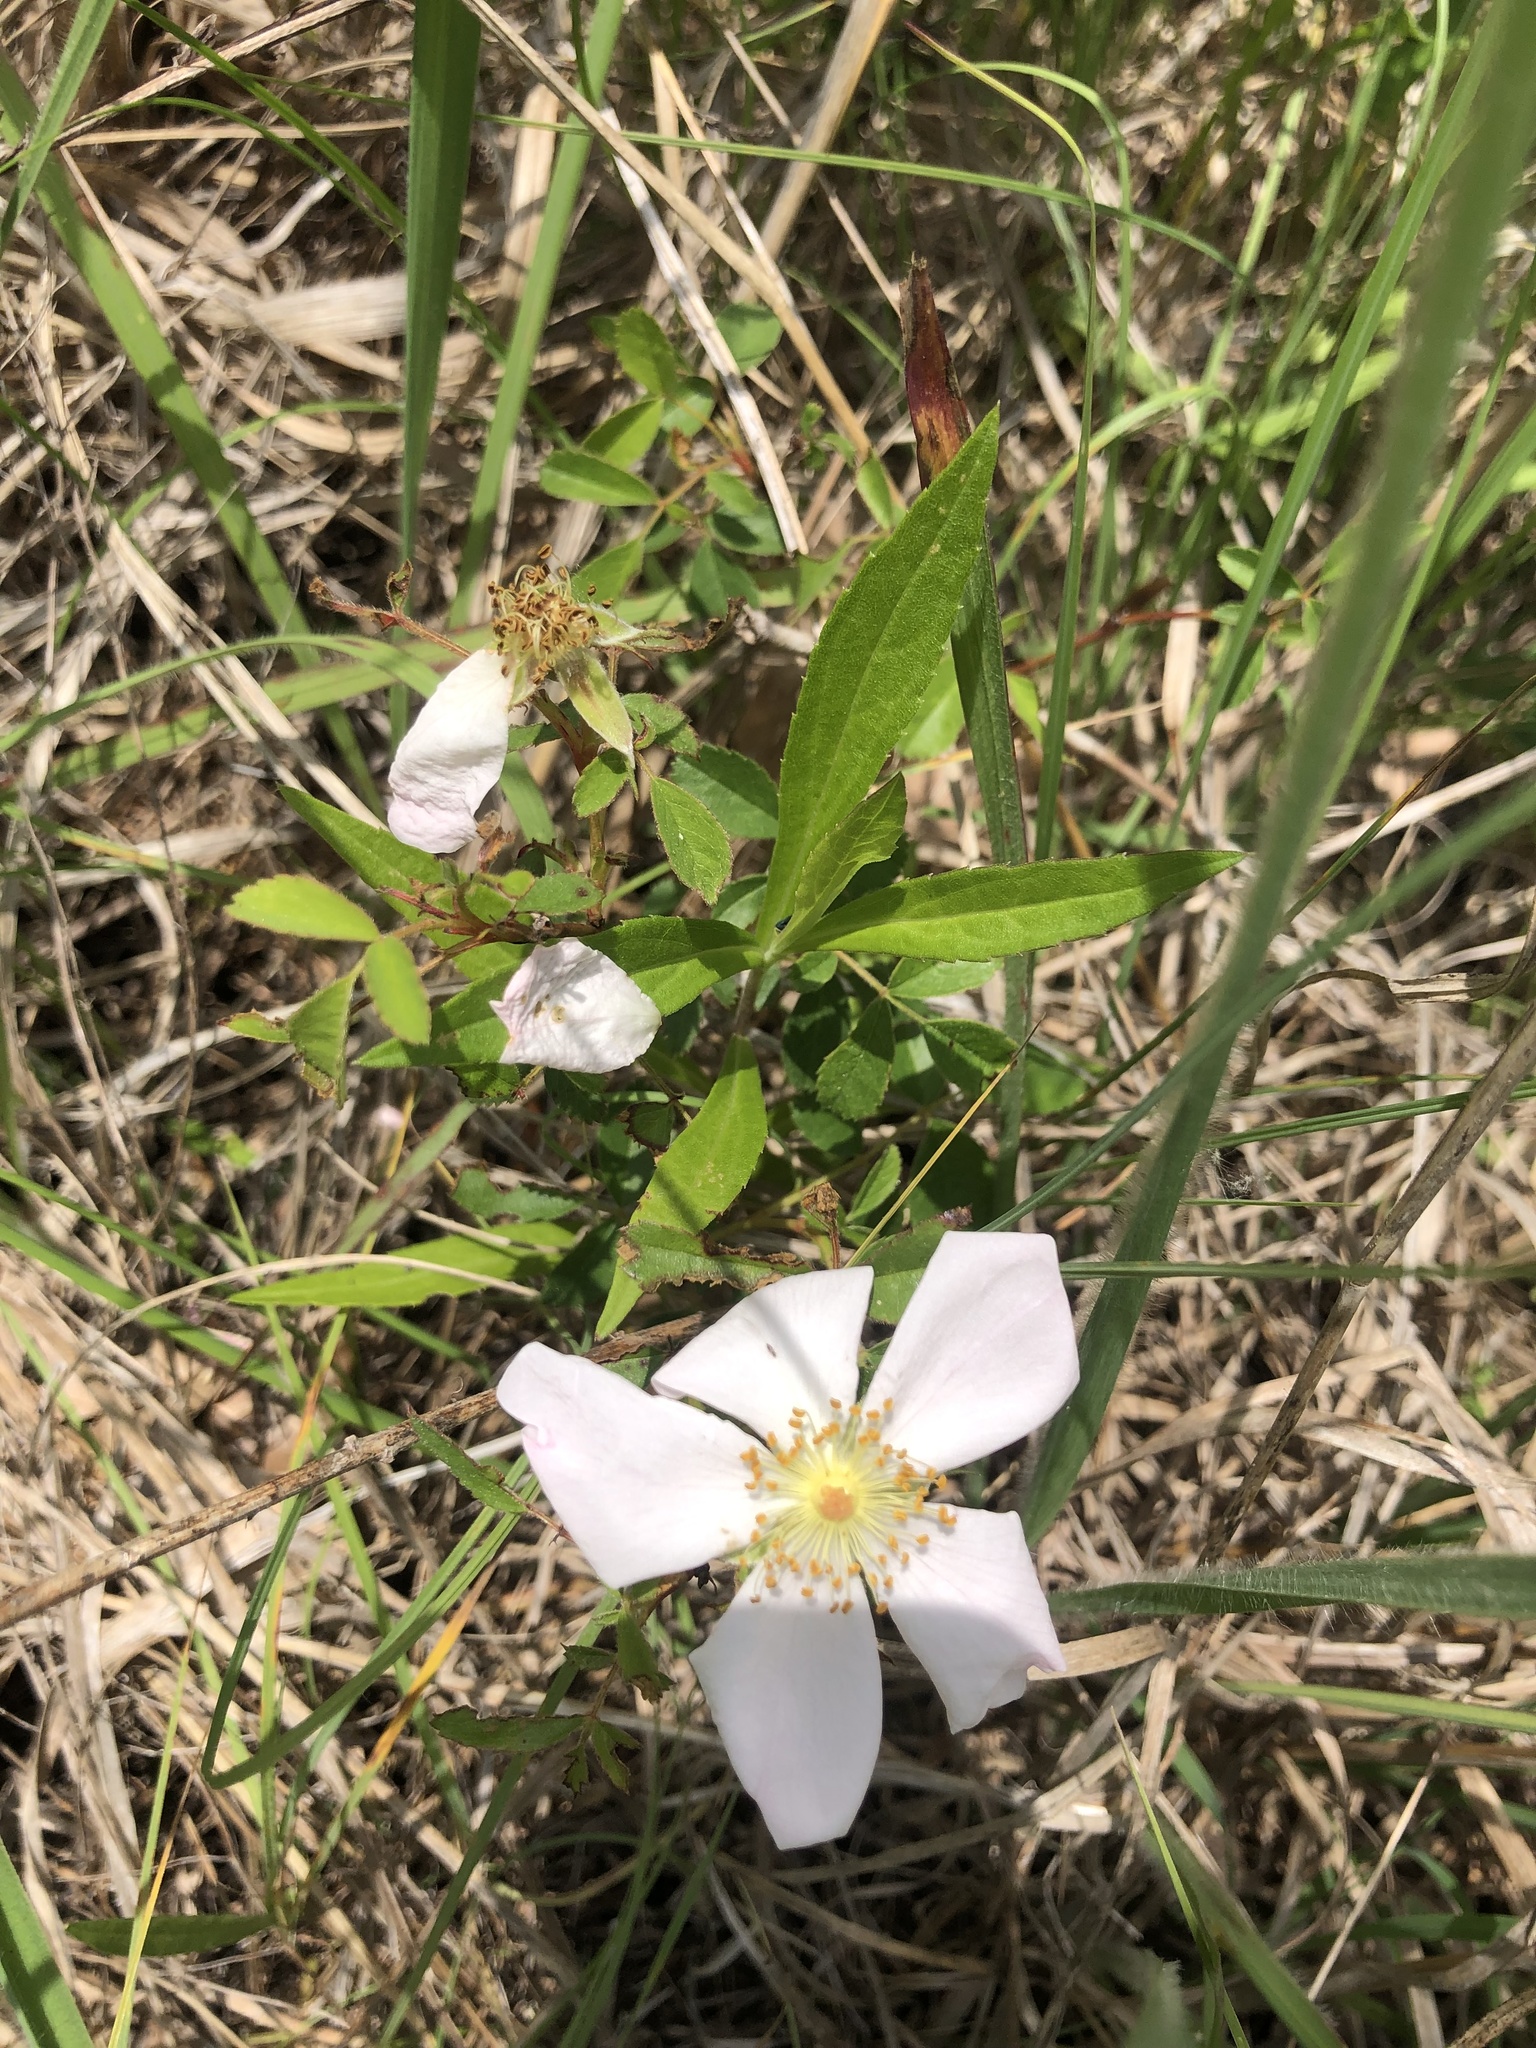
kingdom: Plantae
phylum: Tracheophyta
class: Magnoliopsida
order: Rosales
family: Rosaceae
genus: Rosa
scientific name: Rosa carolina
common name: Pasture rose
